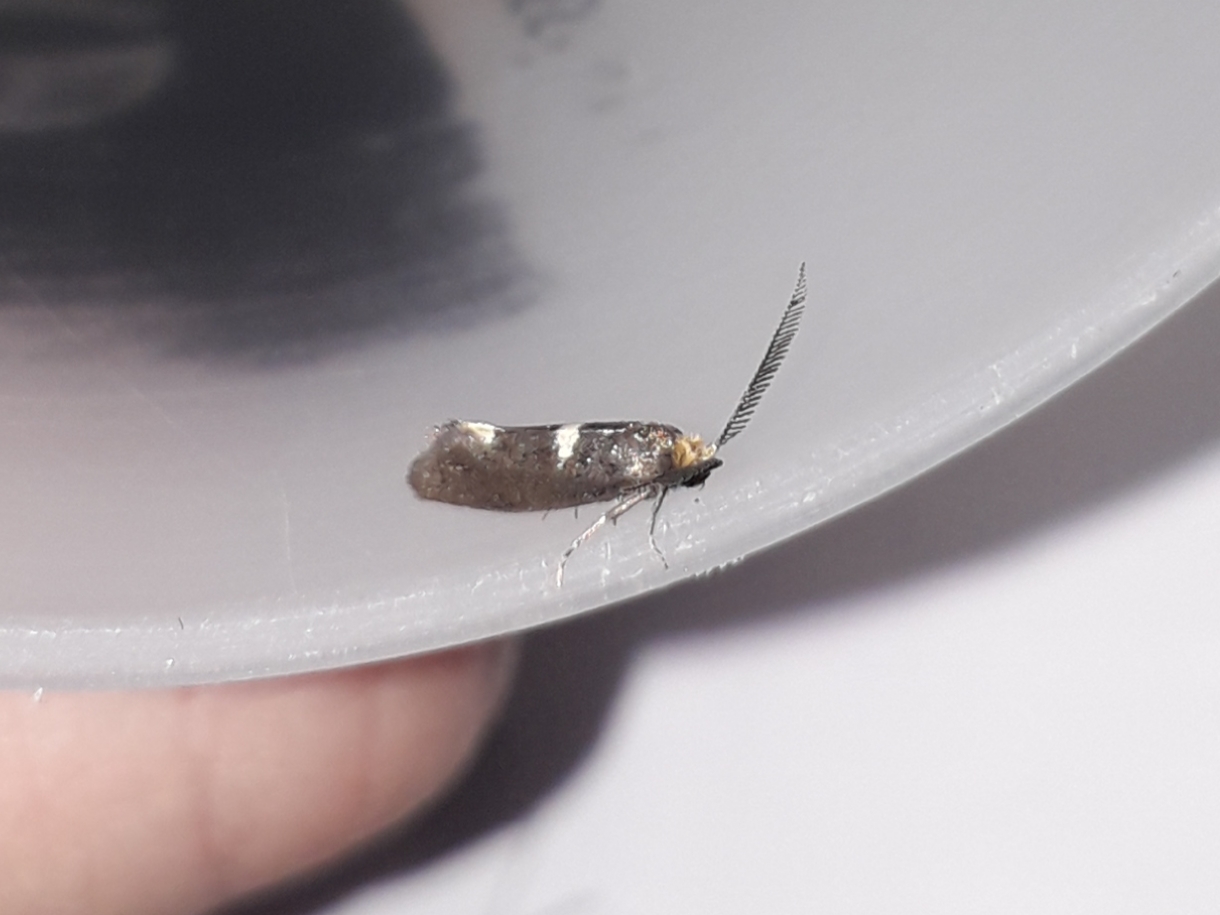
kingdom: Animalia
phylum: Arthropoda
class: Insecta
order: Lepidoptera
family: Incurvariidae
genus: Incurvaria
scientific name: Incurvaria masculella
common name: Feathered leaf-cutter
